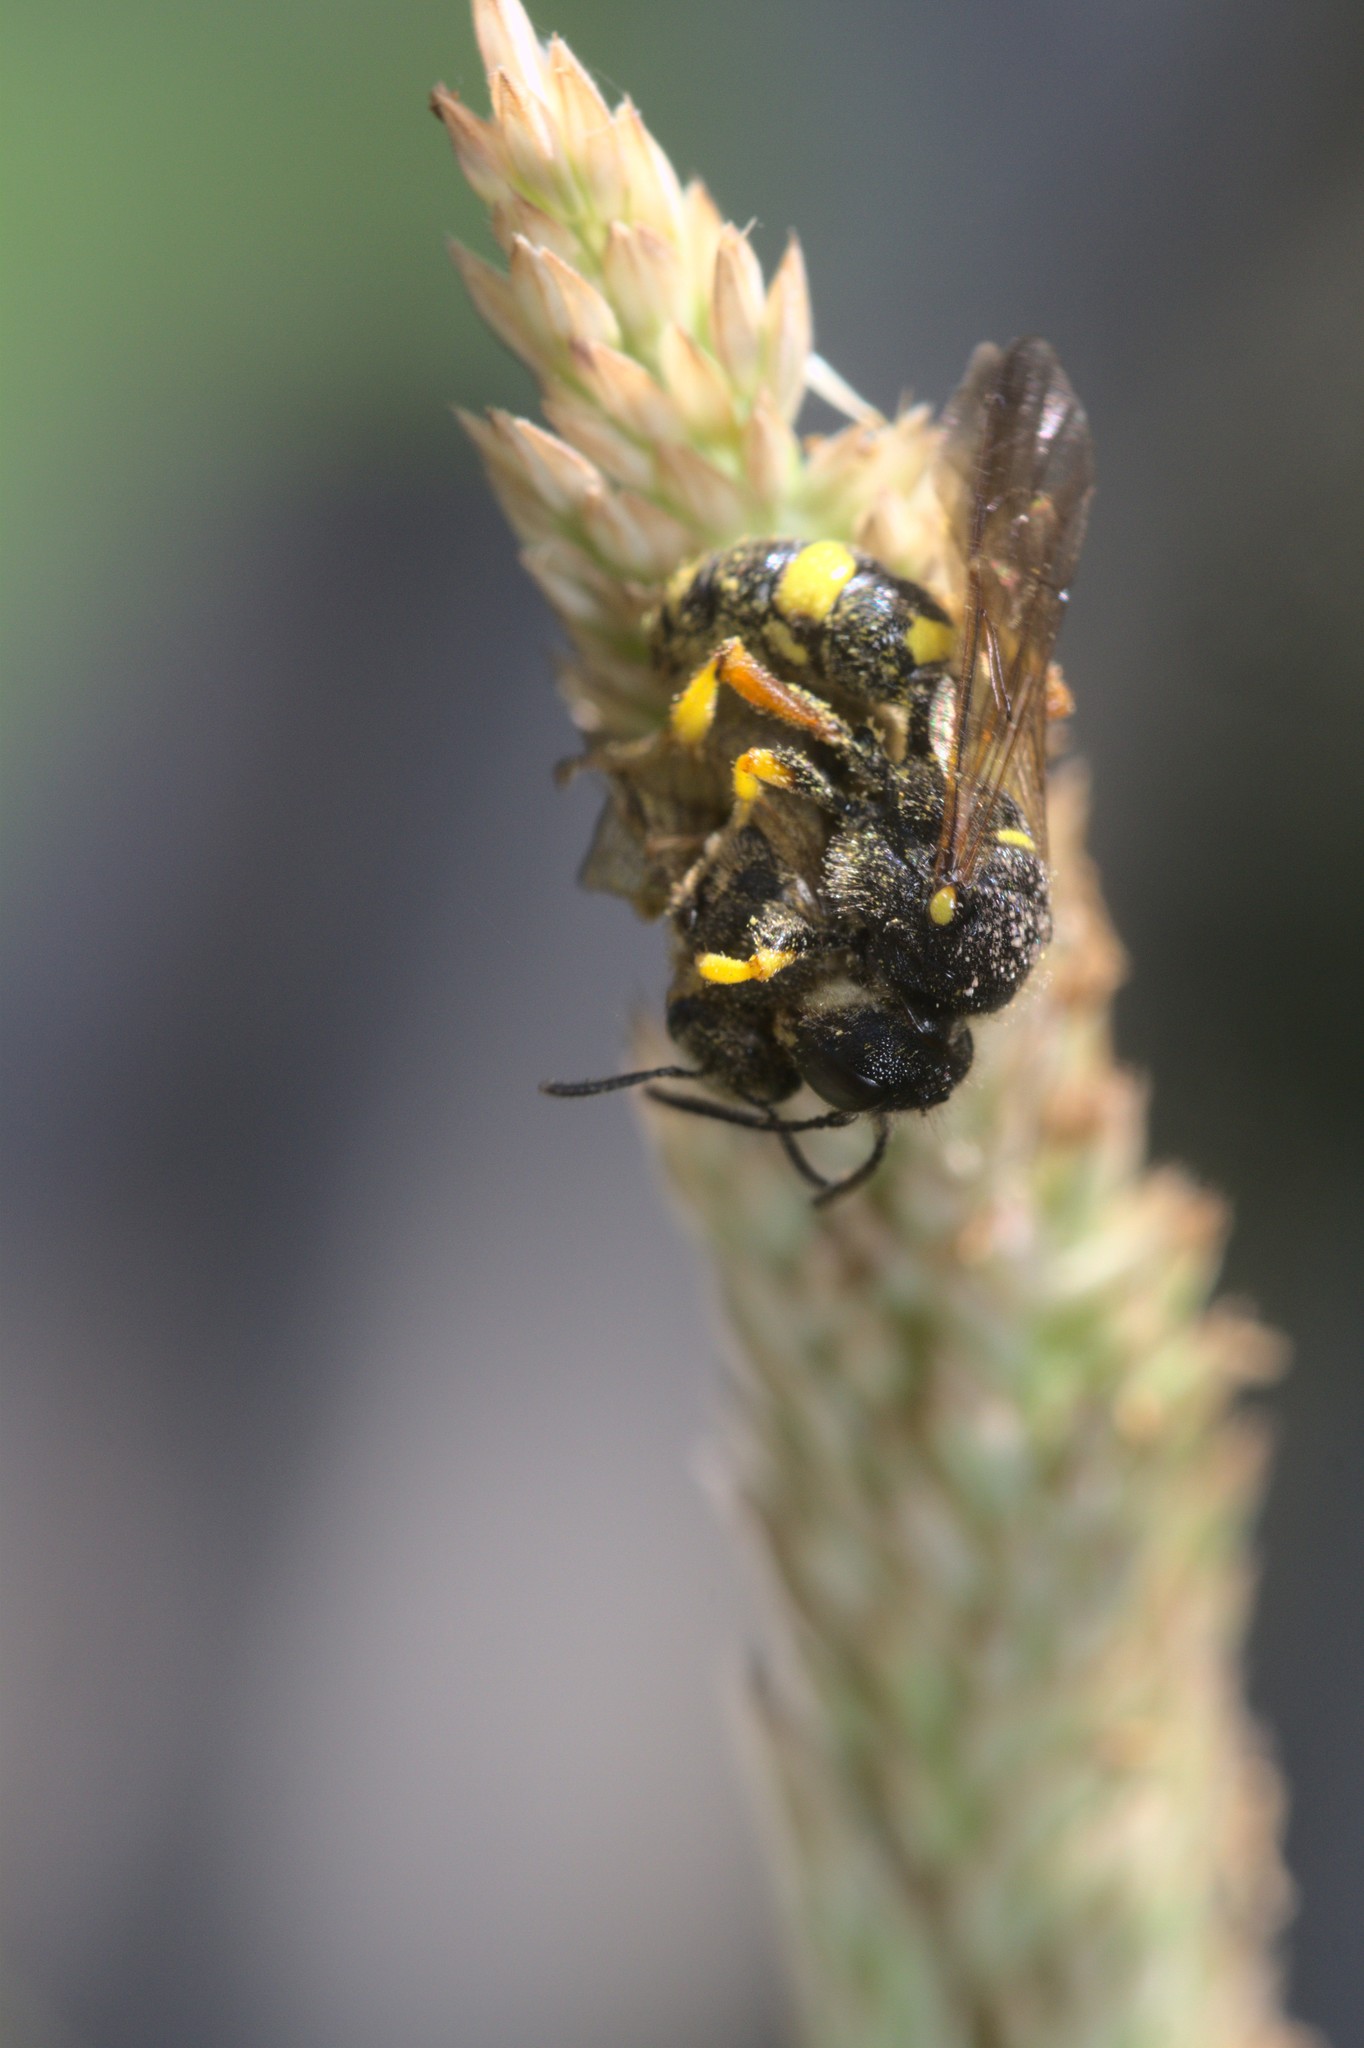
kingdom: Animalia
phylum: Arthropoda
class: Insecta
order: Hymenoptera
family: Crabronidae
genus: Cerceris
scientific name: Cerceris rybyensis
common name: Ornate tailed digger wasp
